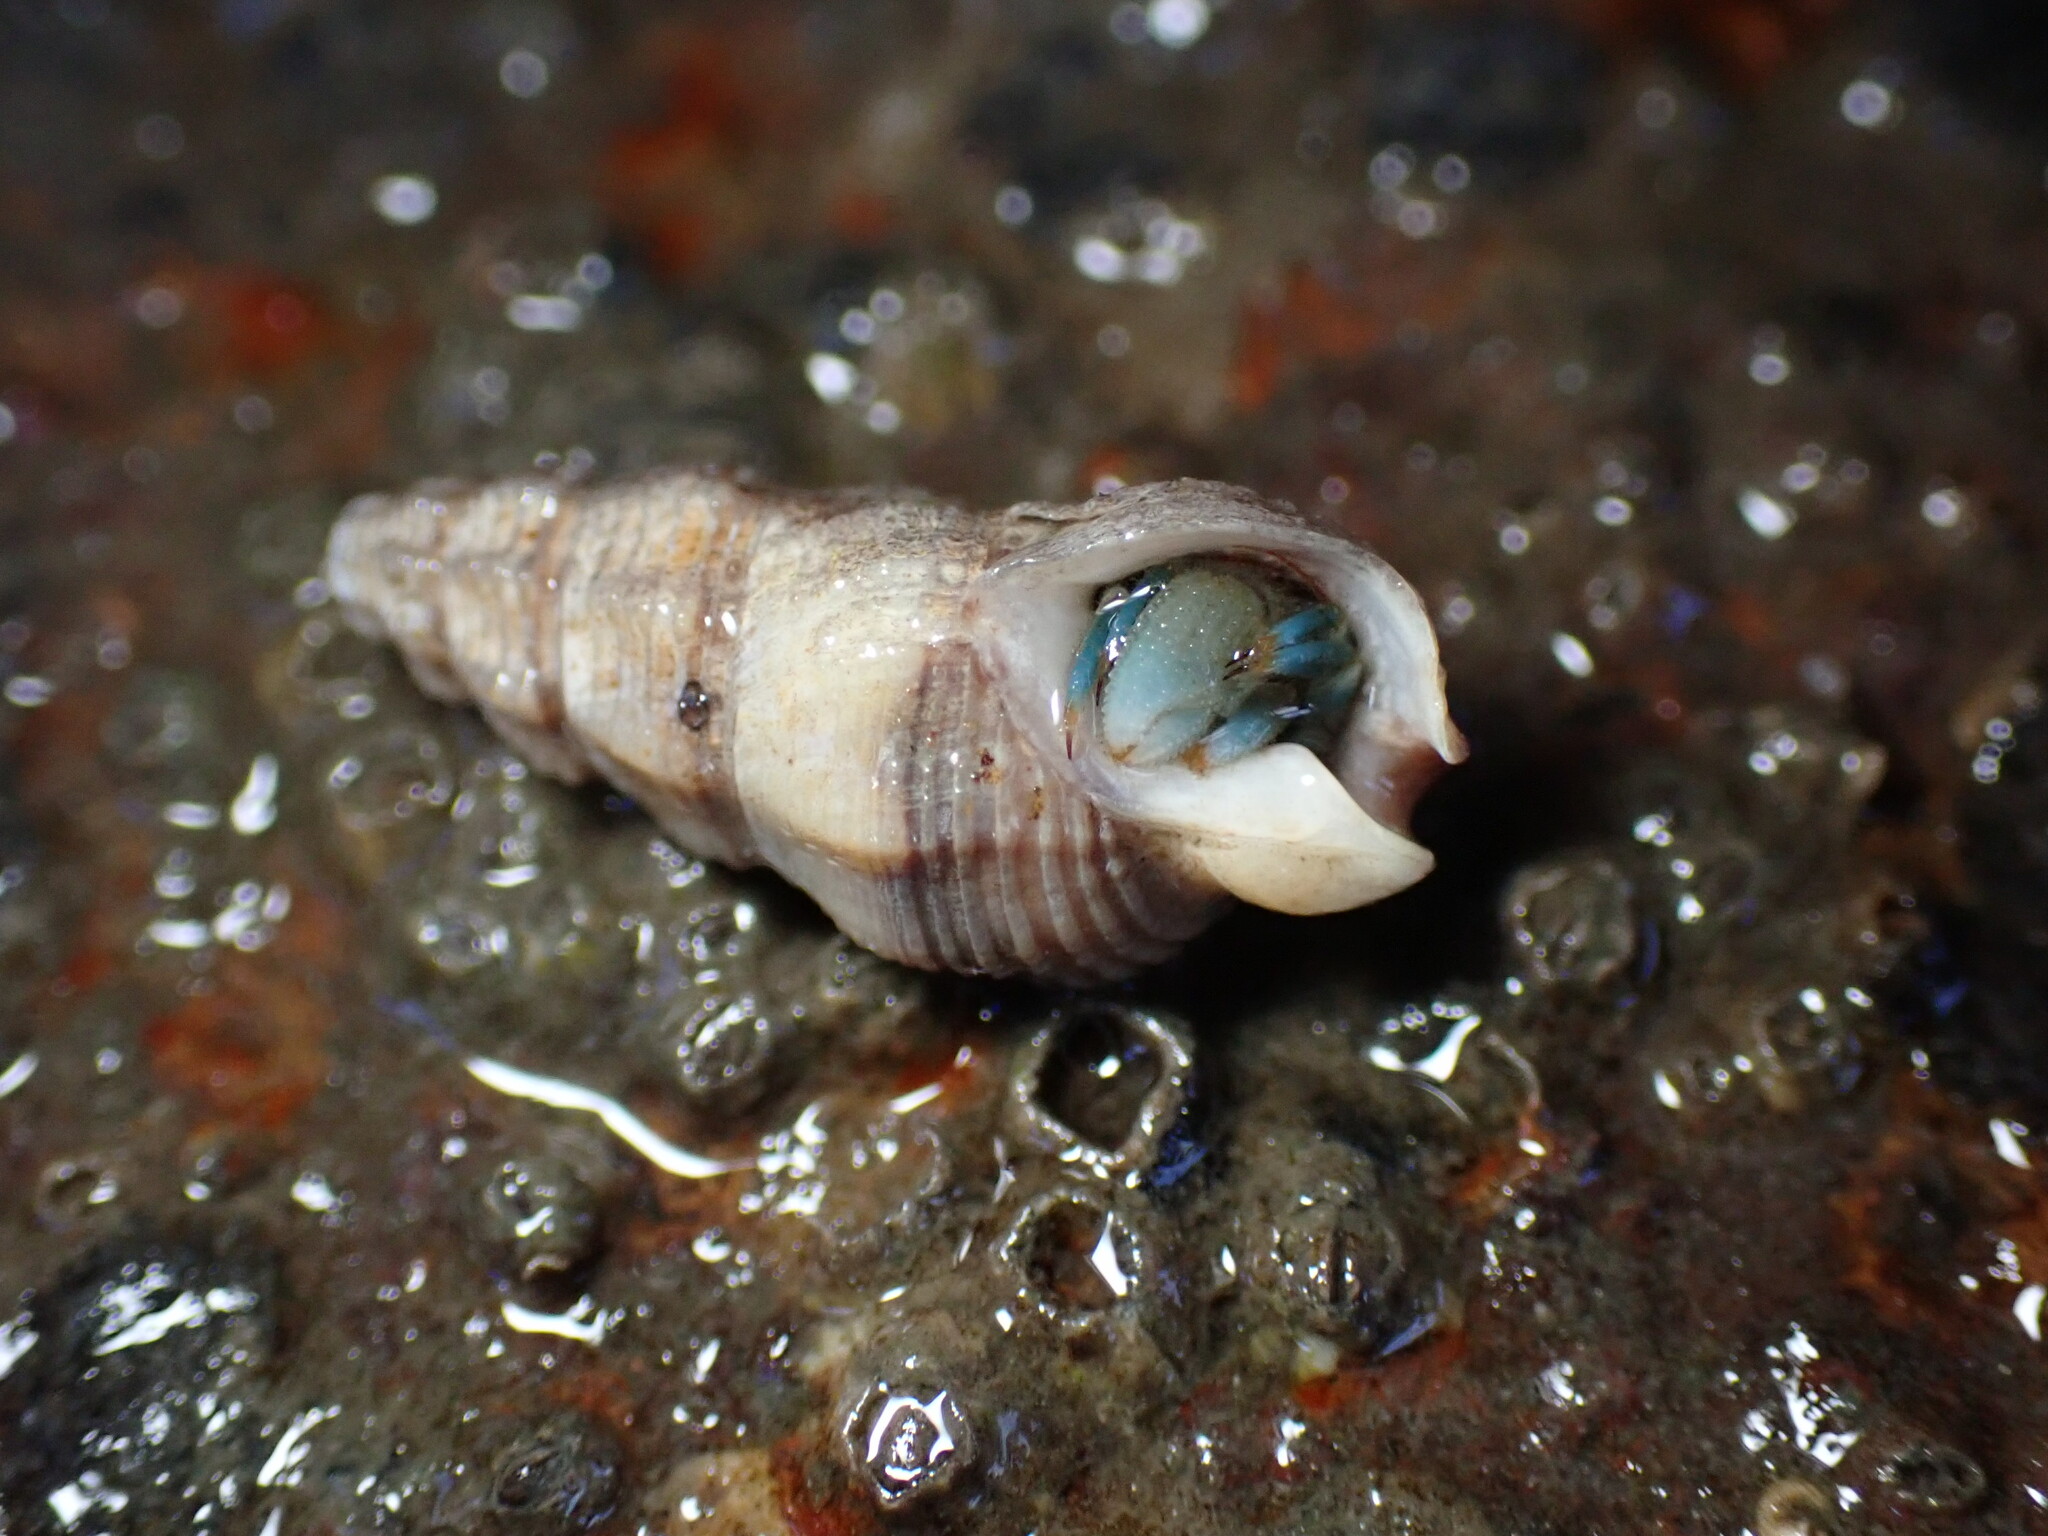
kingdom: Animalia
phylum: Mollusca
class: Gastropoda
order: Neogastropoda
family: Nassariidae
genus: Nassarius
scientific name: Nassarius mendicus
